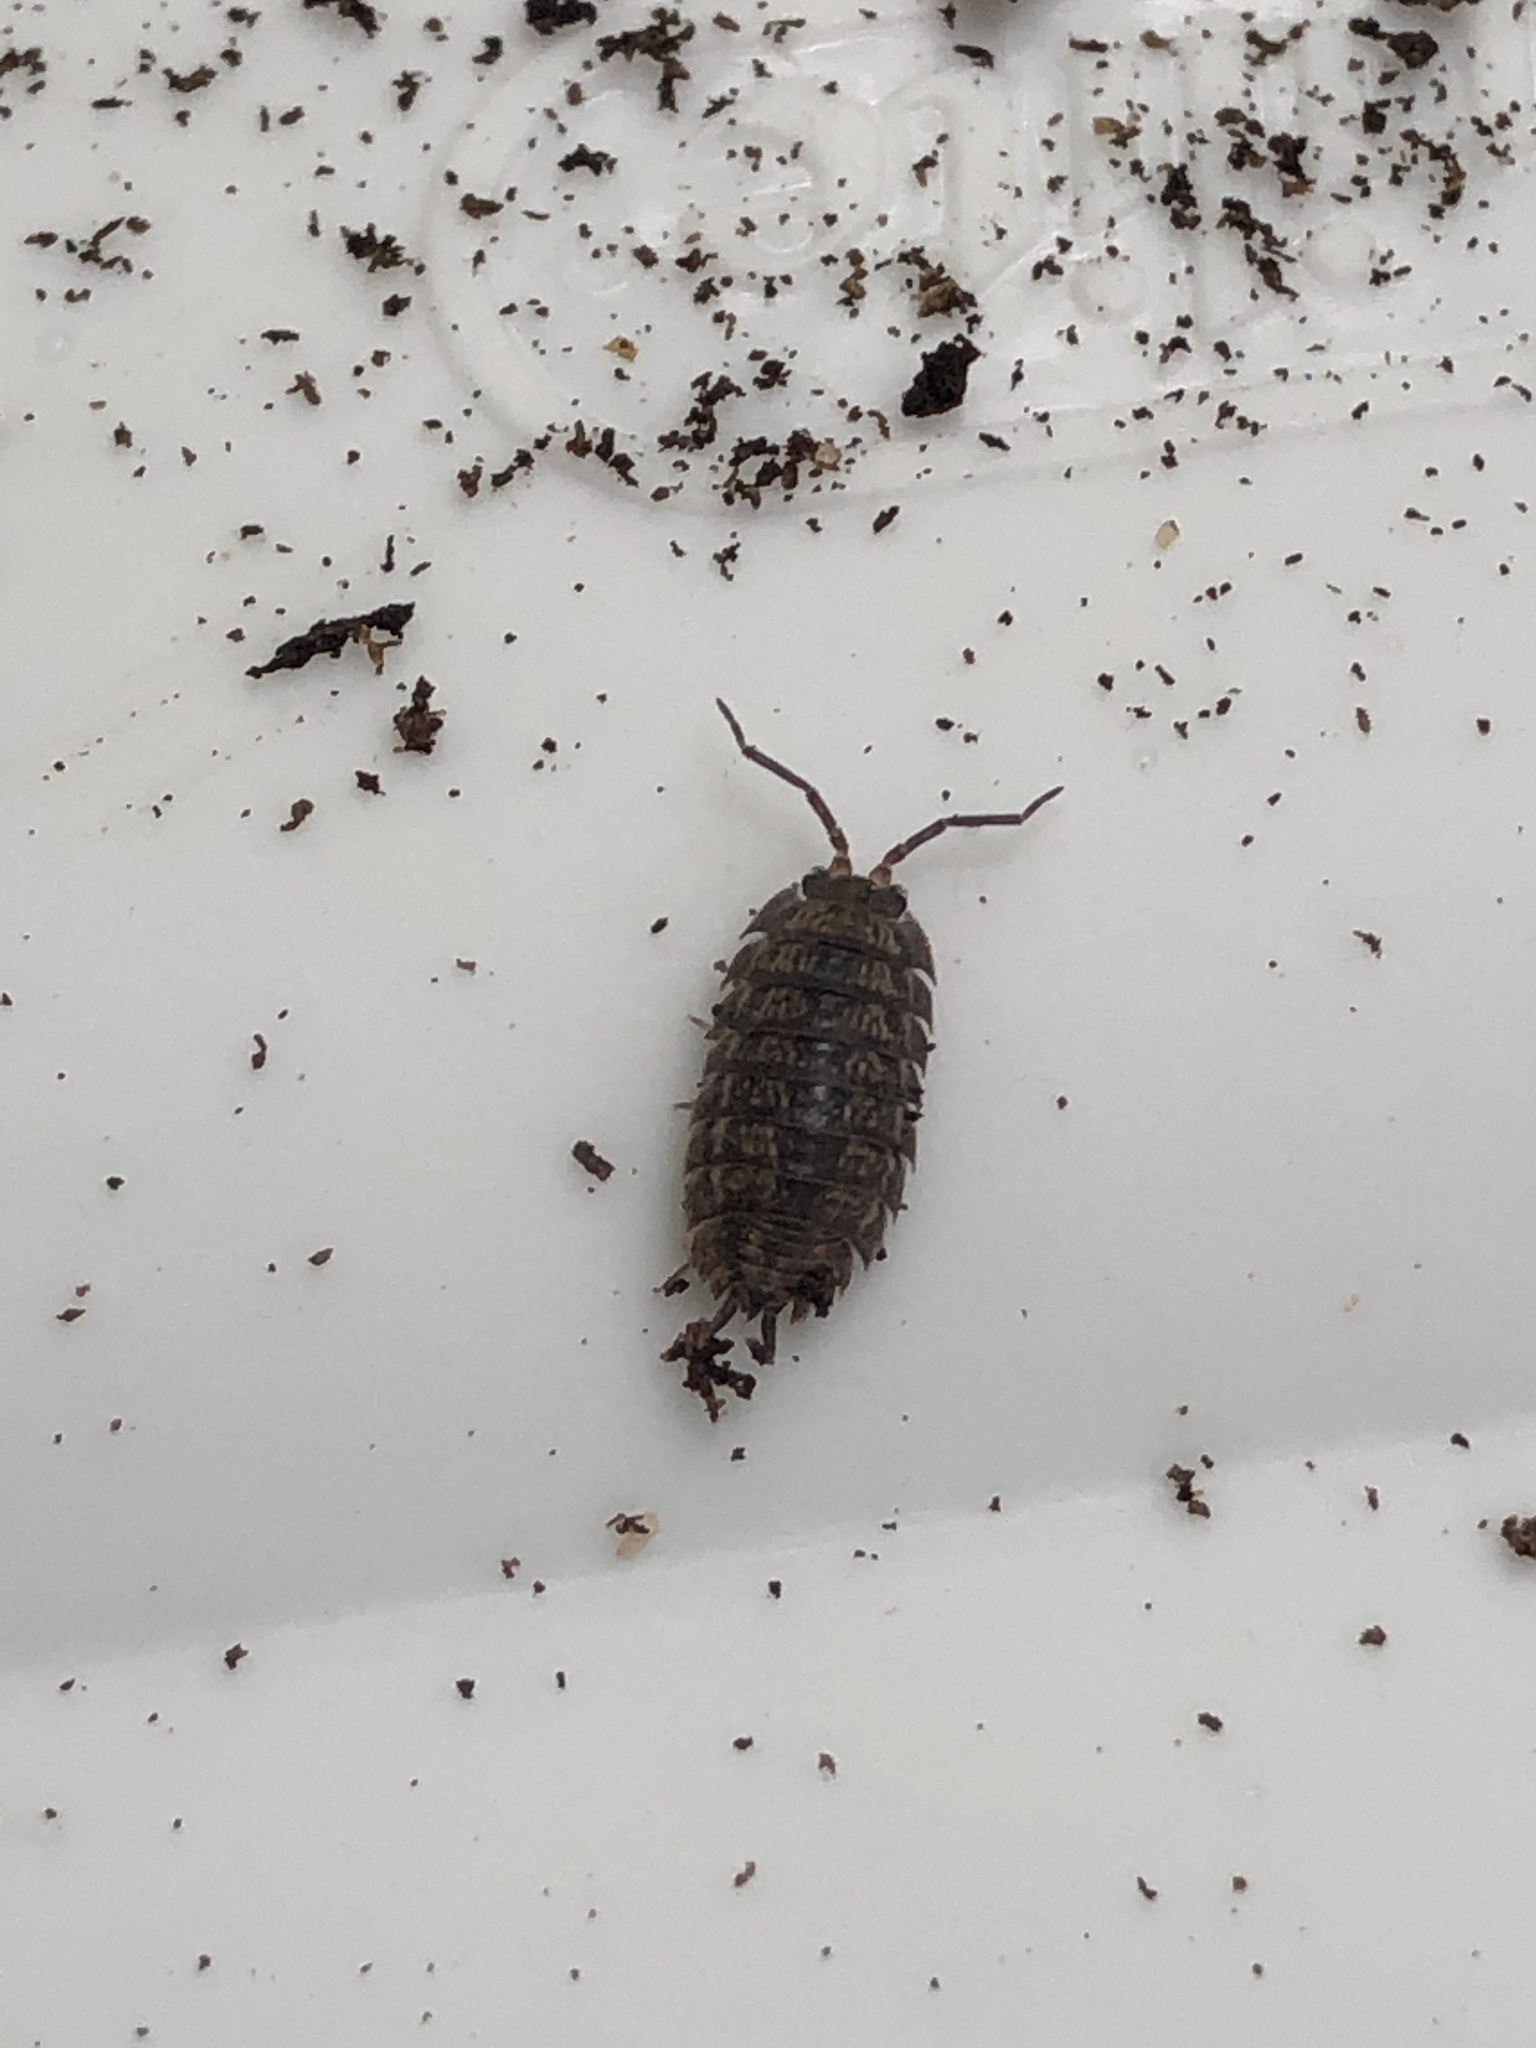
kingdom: Animalia
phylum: Arthropoda
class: Malacostraca
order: Isopoda
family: Trachelipodidae
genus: Trachelipus
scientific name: Trachelipus rathkii
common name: Isopod
